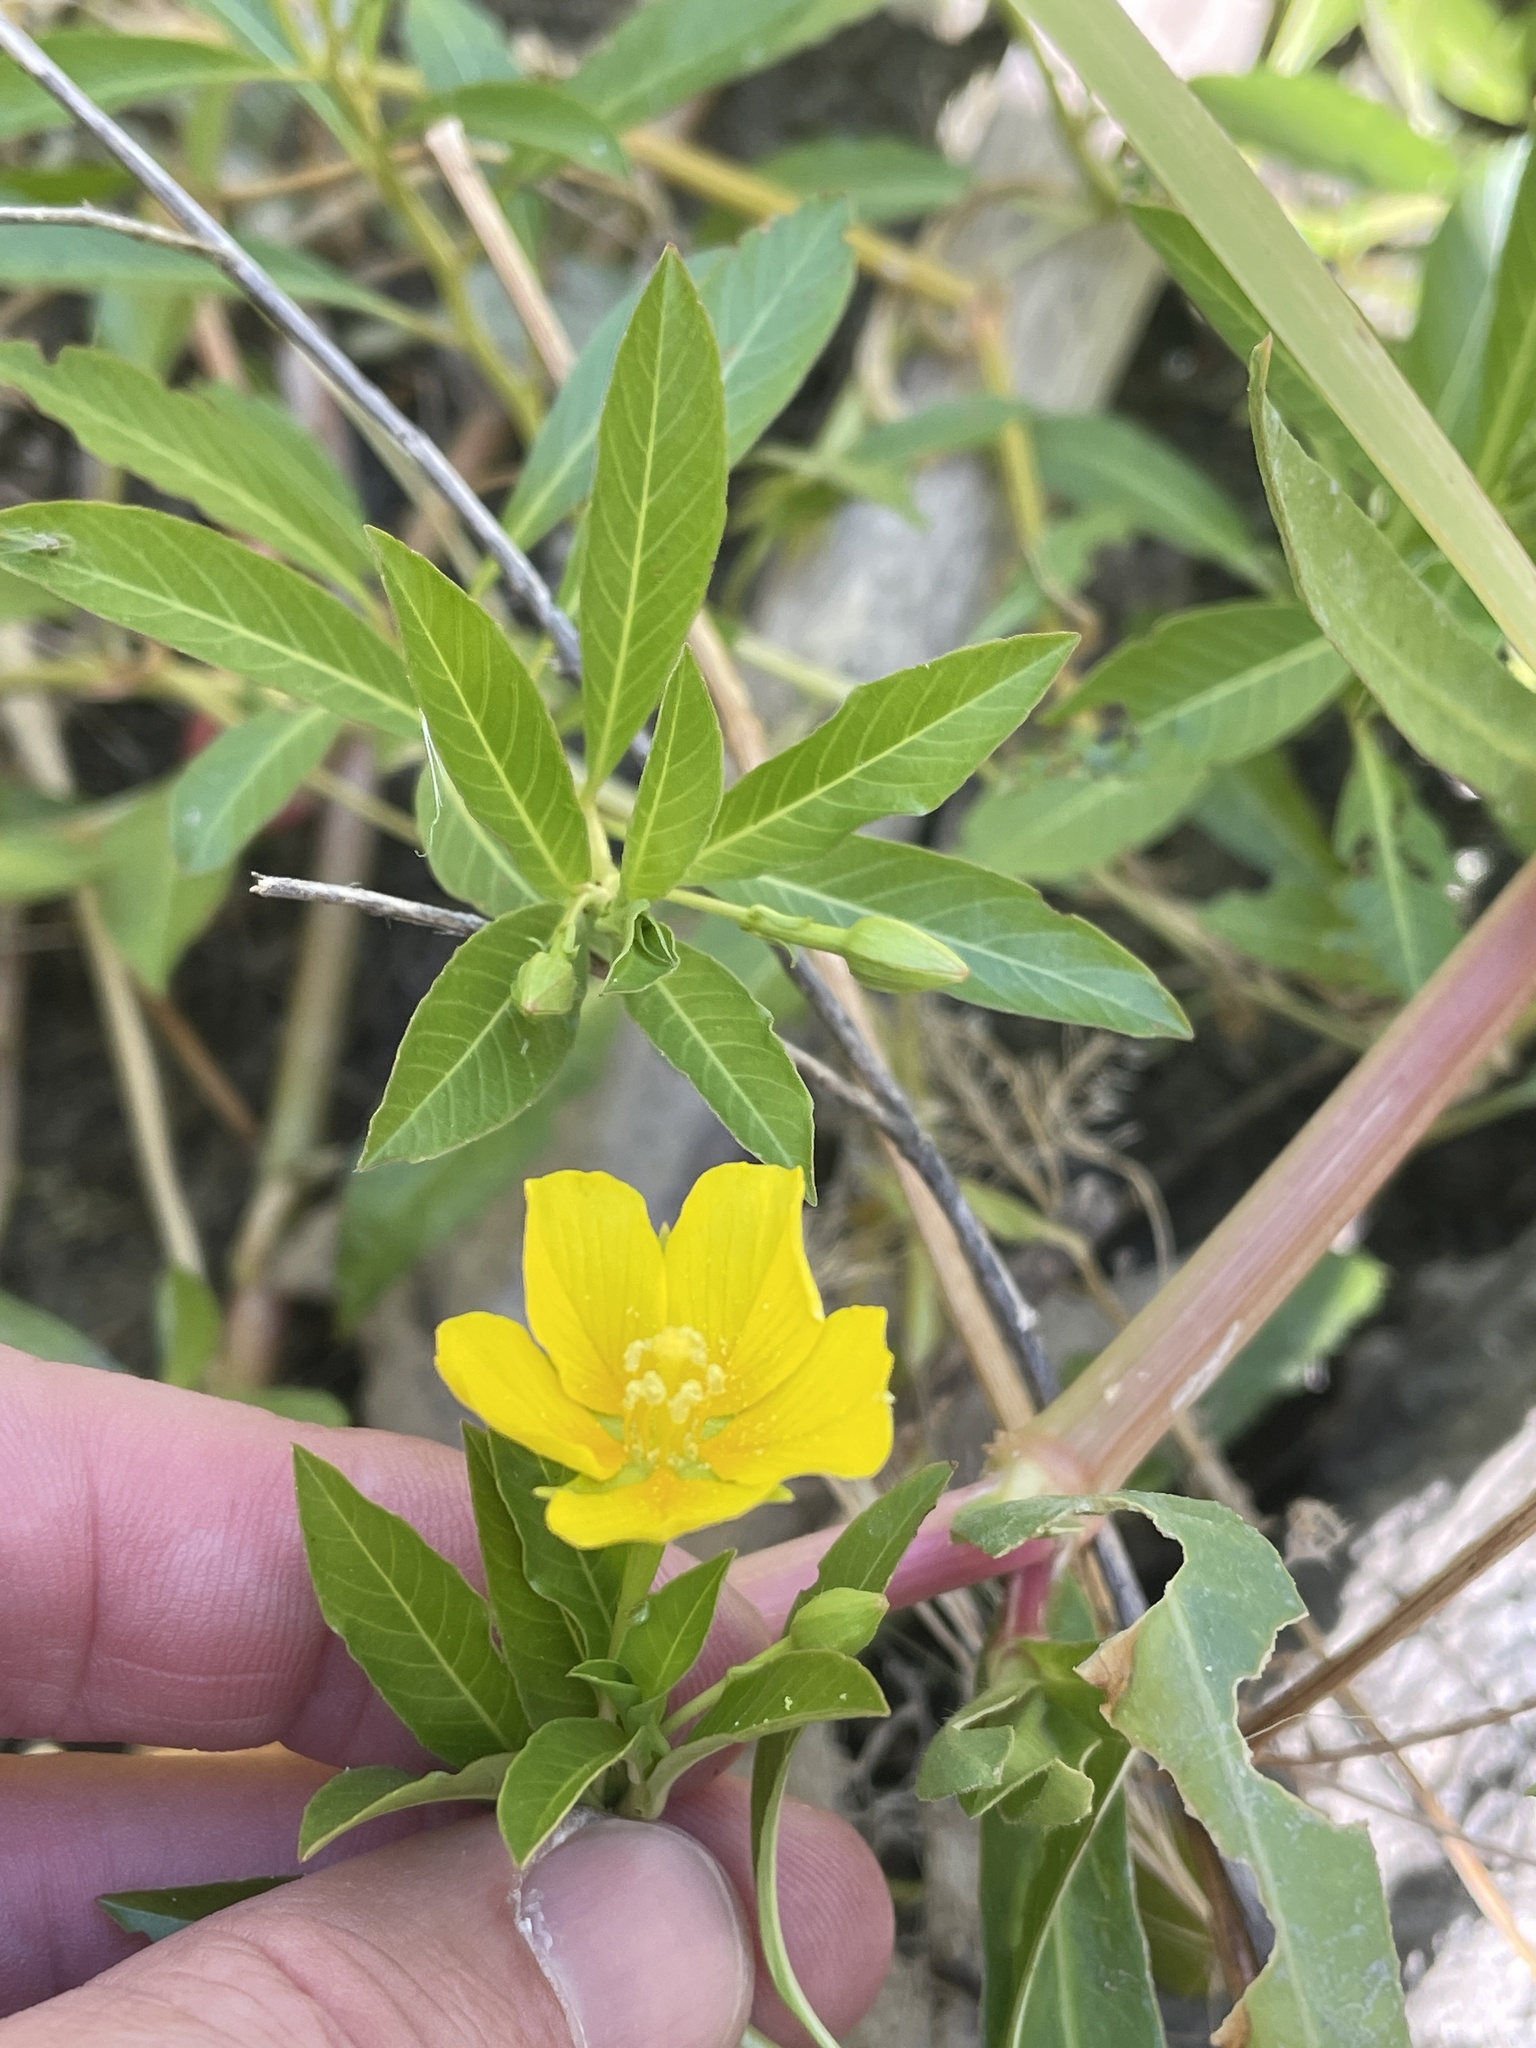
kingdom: Plantae
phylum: Tracheophyta
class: Magnoliopsida
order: Myrtales
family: Onagraceae
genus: Ludwigia
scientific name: Ludwigia peploides
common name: Floating primrose-willow
